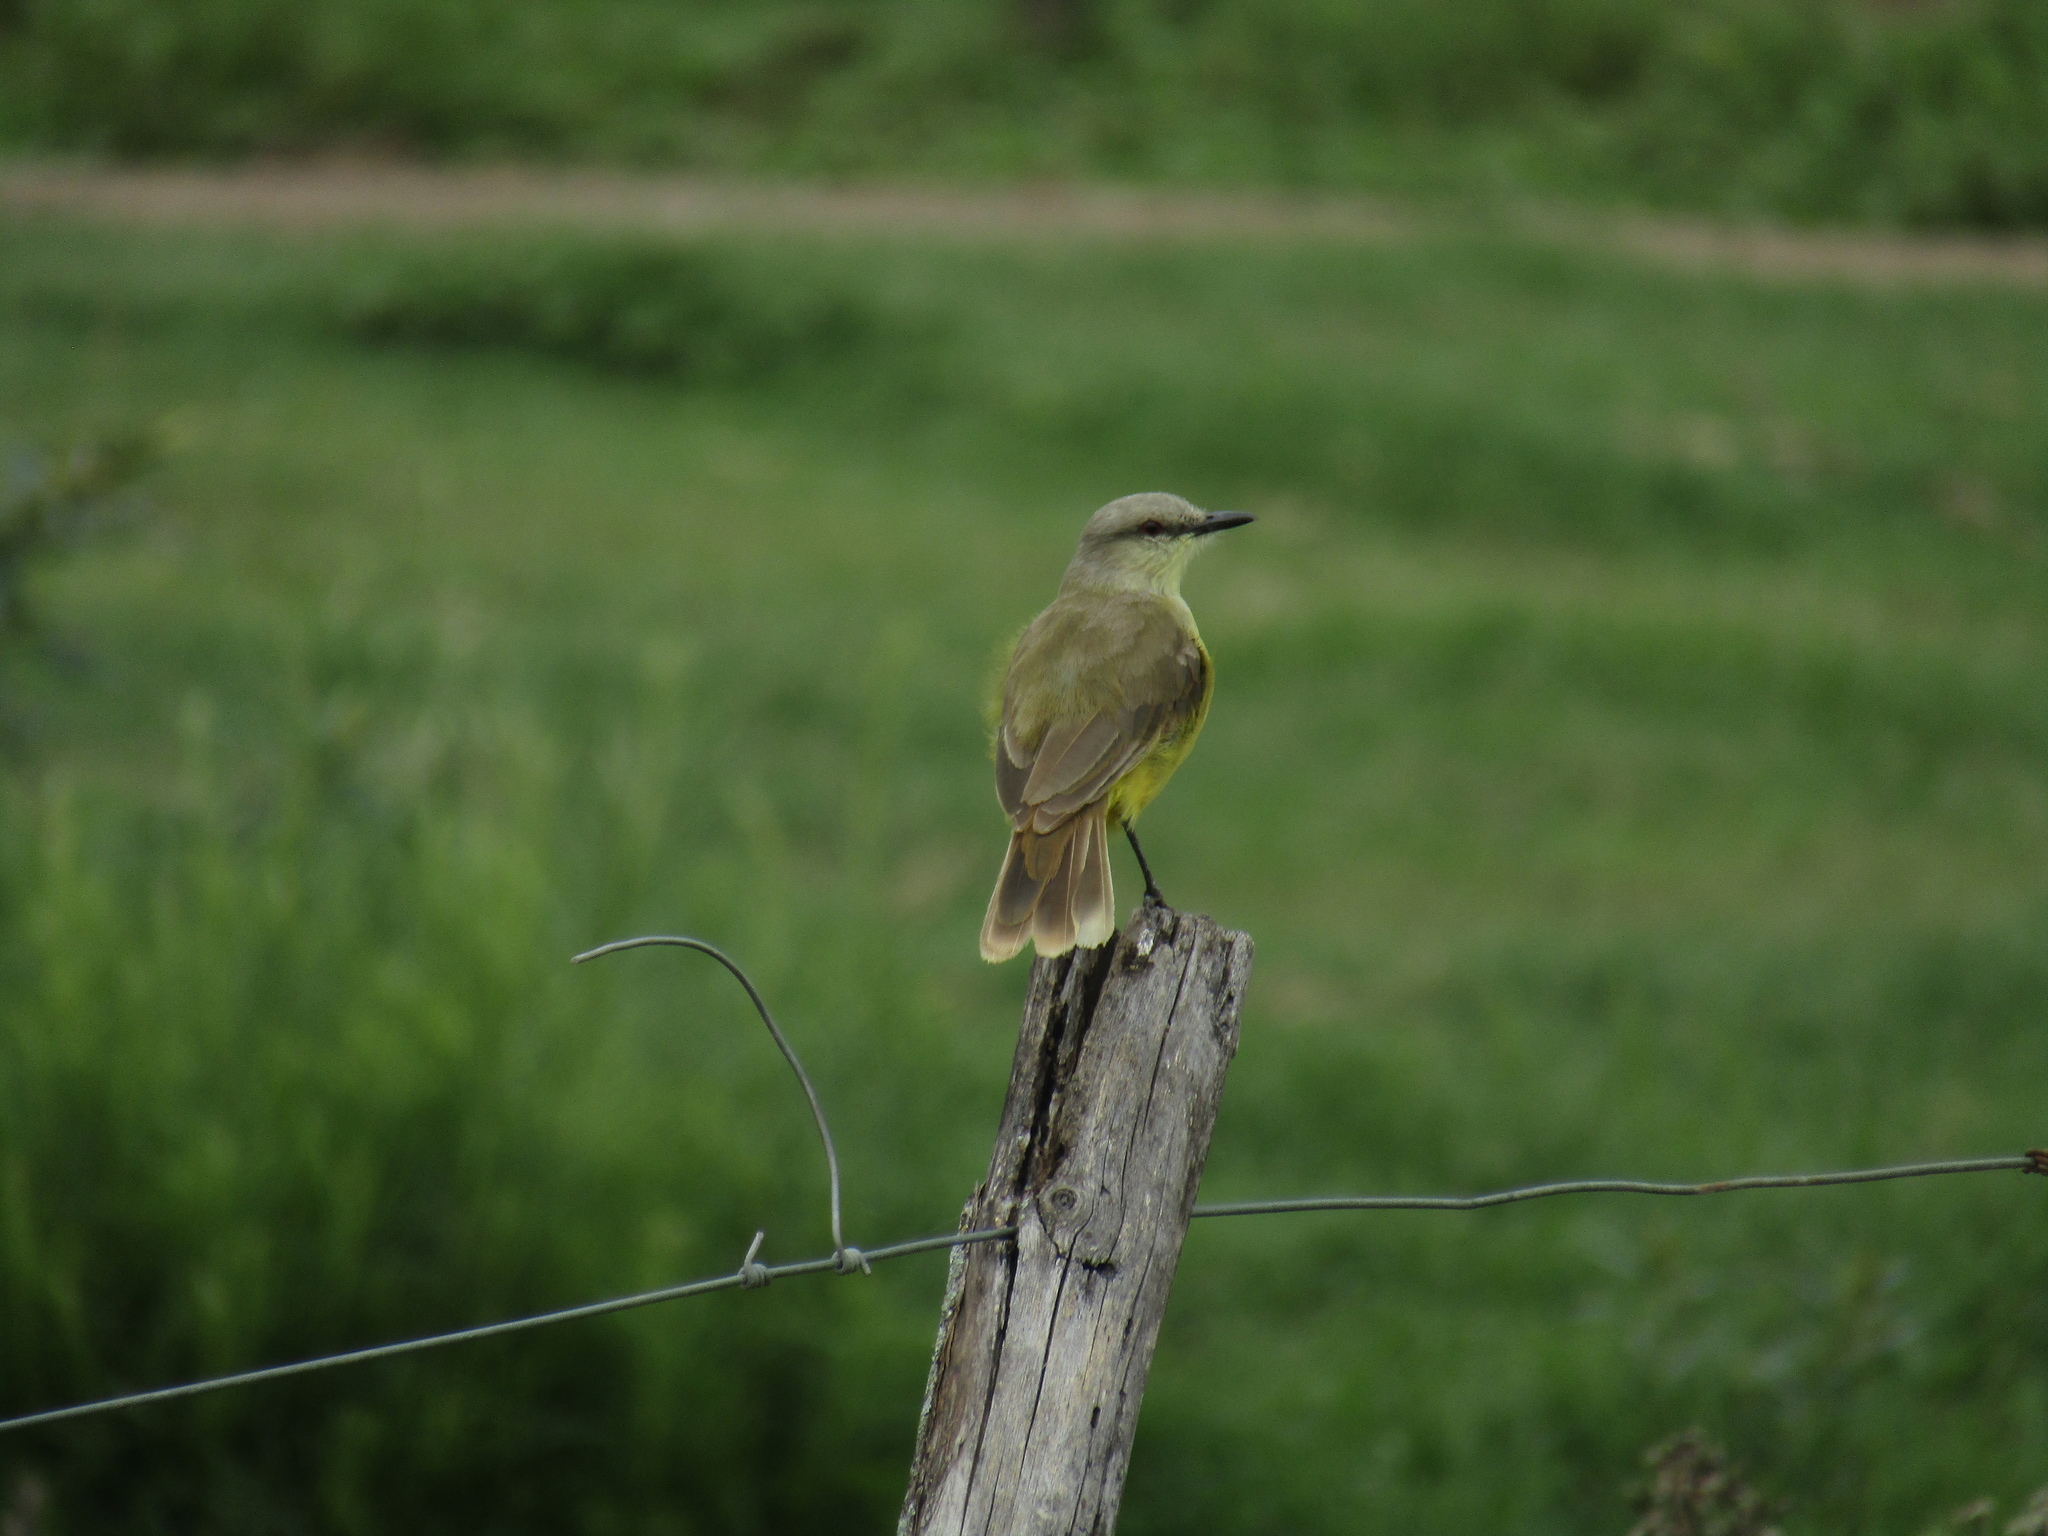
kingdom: Animalia
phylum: Chordata
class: Aves
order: Passeriformes
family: Tyrannidae
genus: Machetornis
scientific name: Machetornis rixosa
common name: Cattle tyrant
